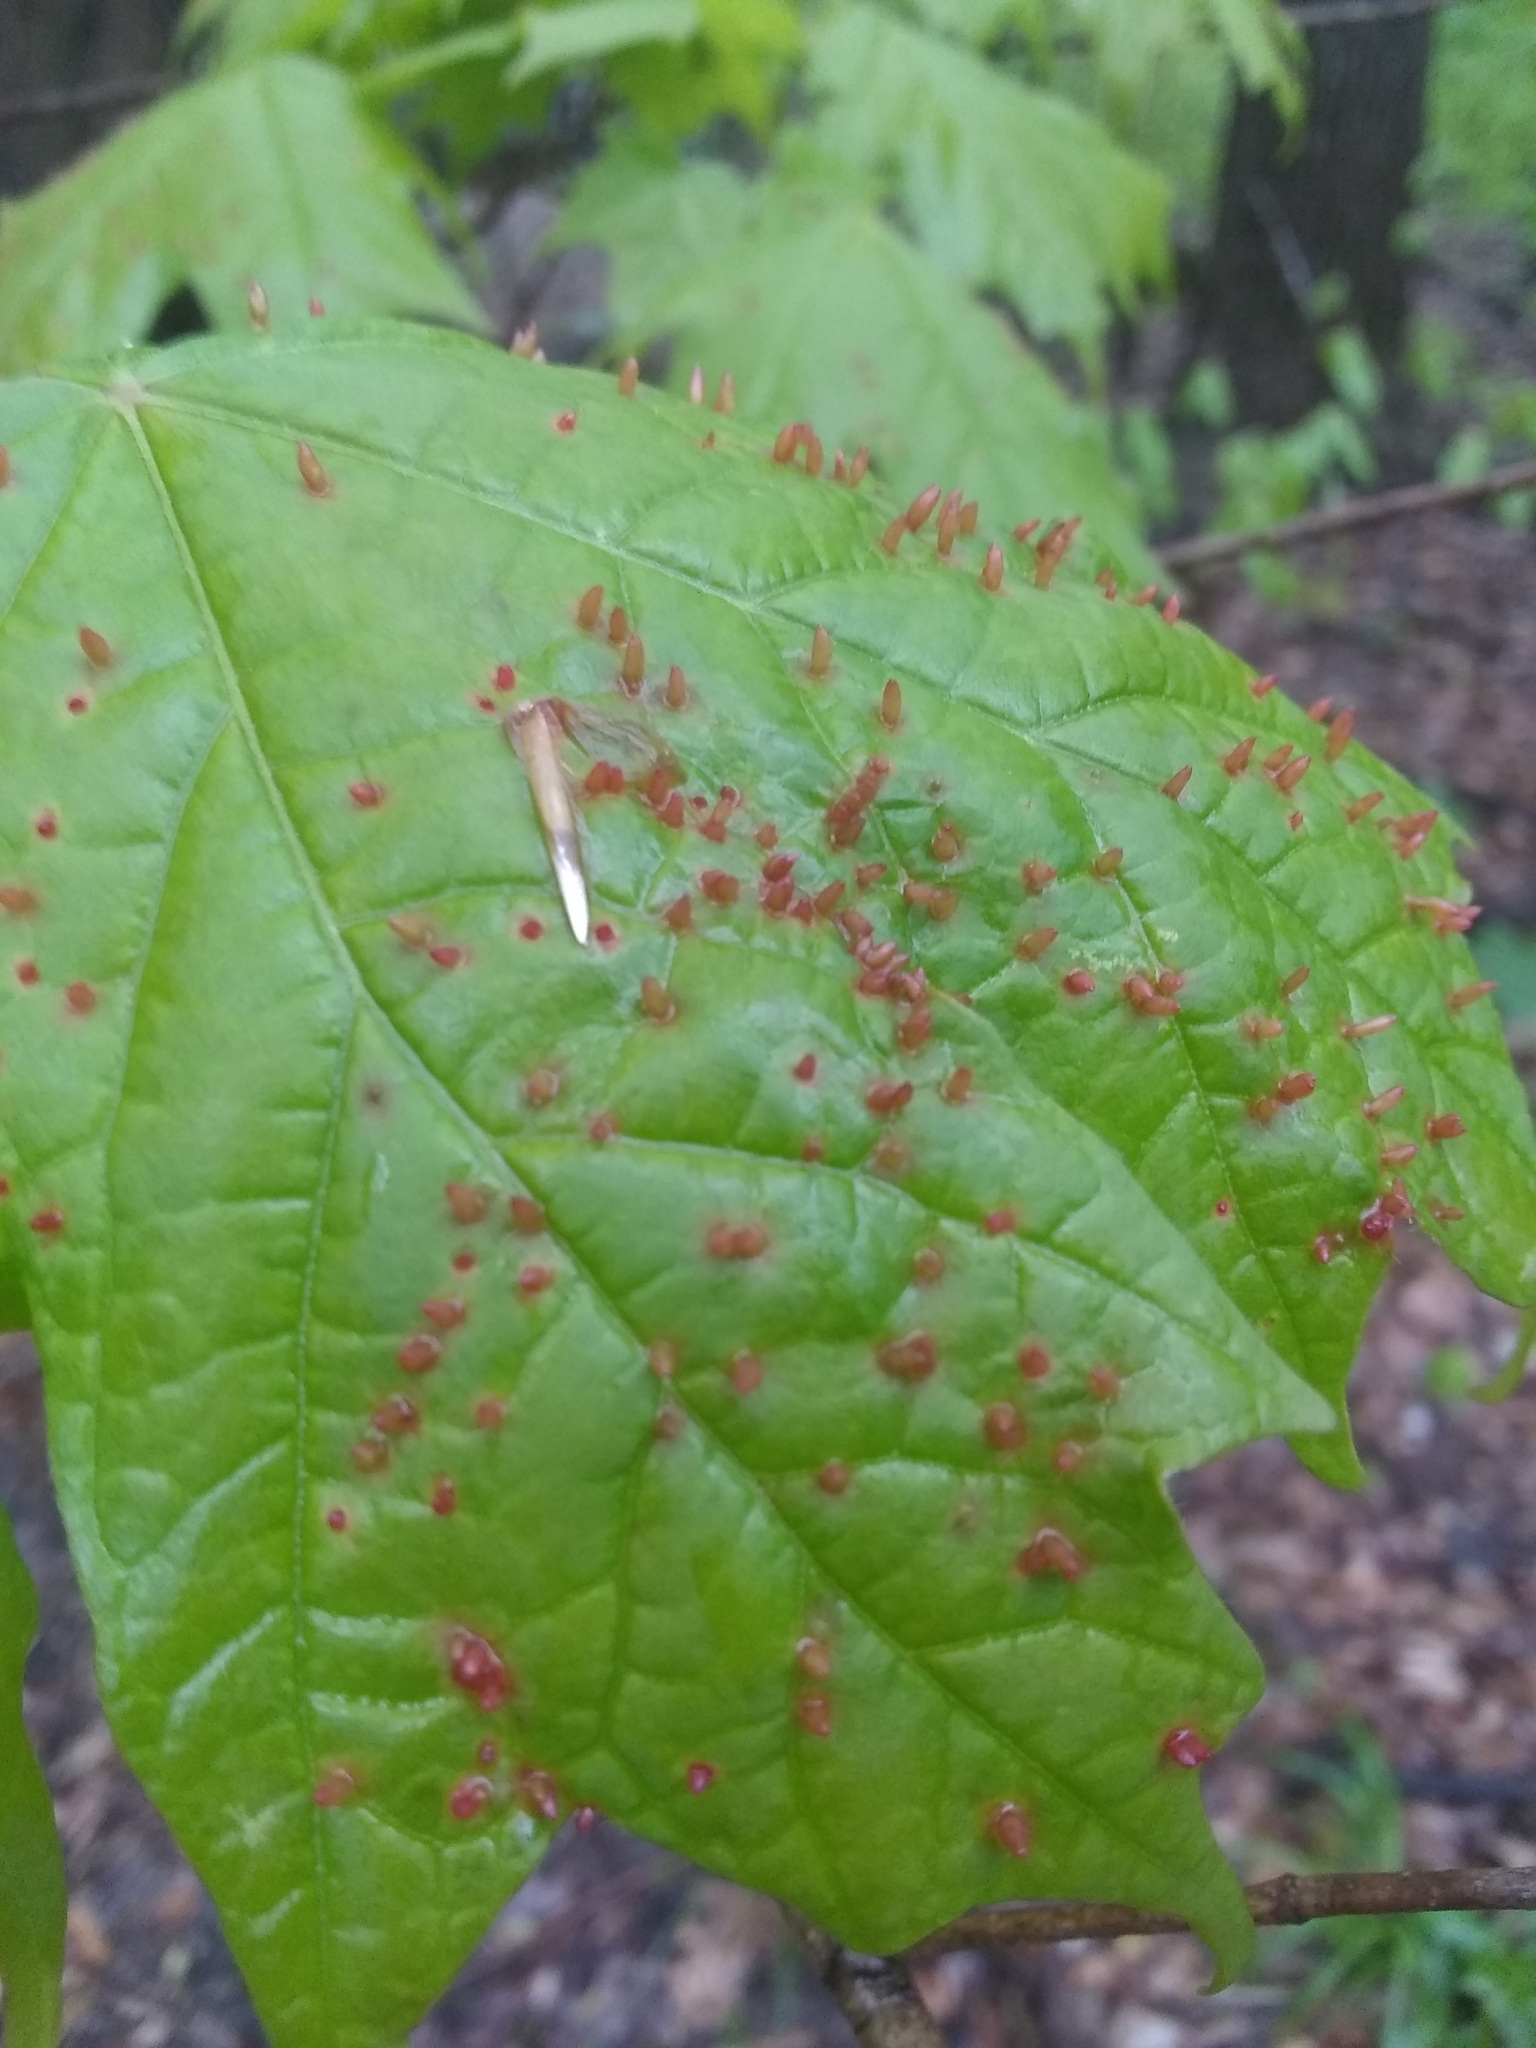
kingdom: Animalia
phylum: Arthropoda
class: Arachnida
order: Trombidiformes
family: Eriophyidae
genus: Vasates
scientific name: Vasates aceriscrumena
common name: Maple spindle gall mite
